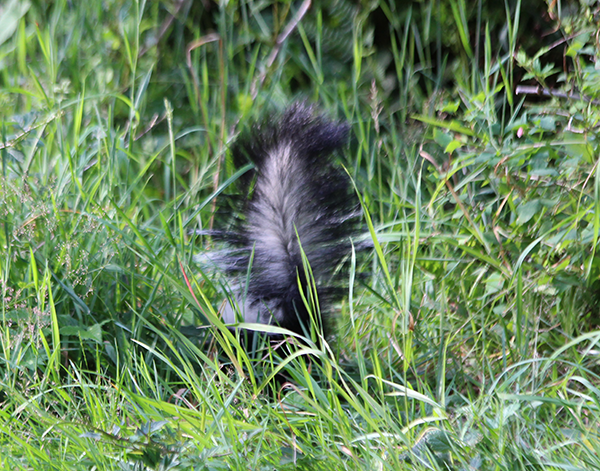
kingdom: Animalia
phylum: Chordata
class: Mammalia
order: Carnivora
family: Mephitidae
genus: Mephitis
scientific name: Mephitis mephitis
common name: Striped skunk
